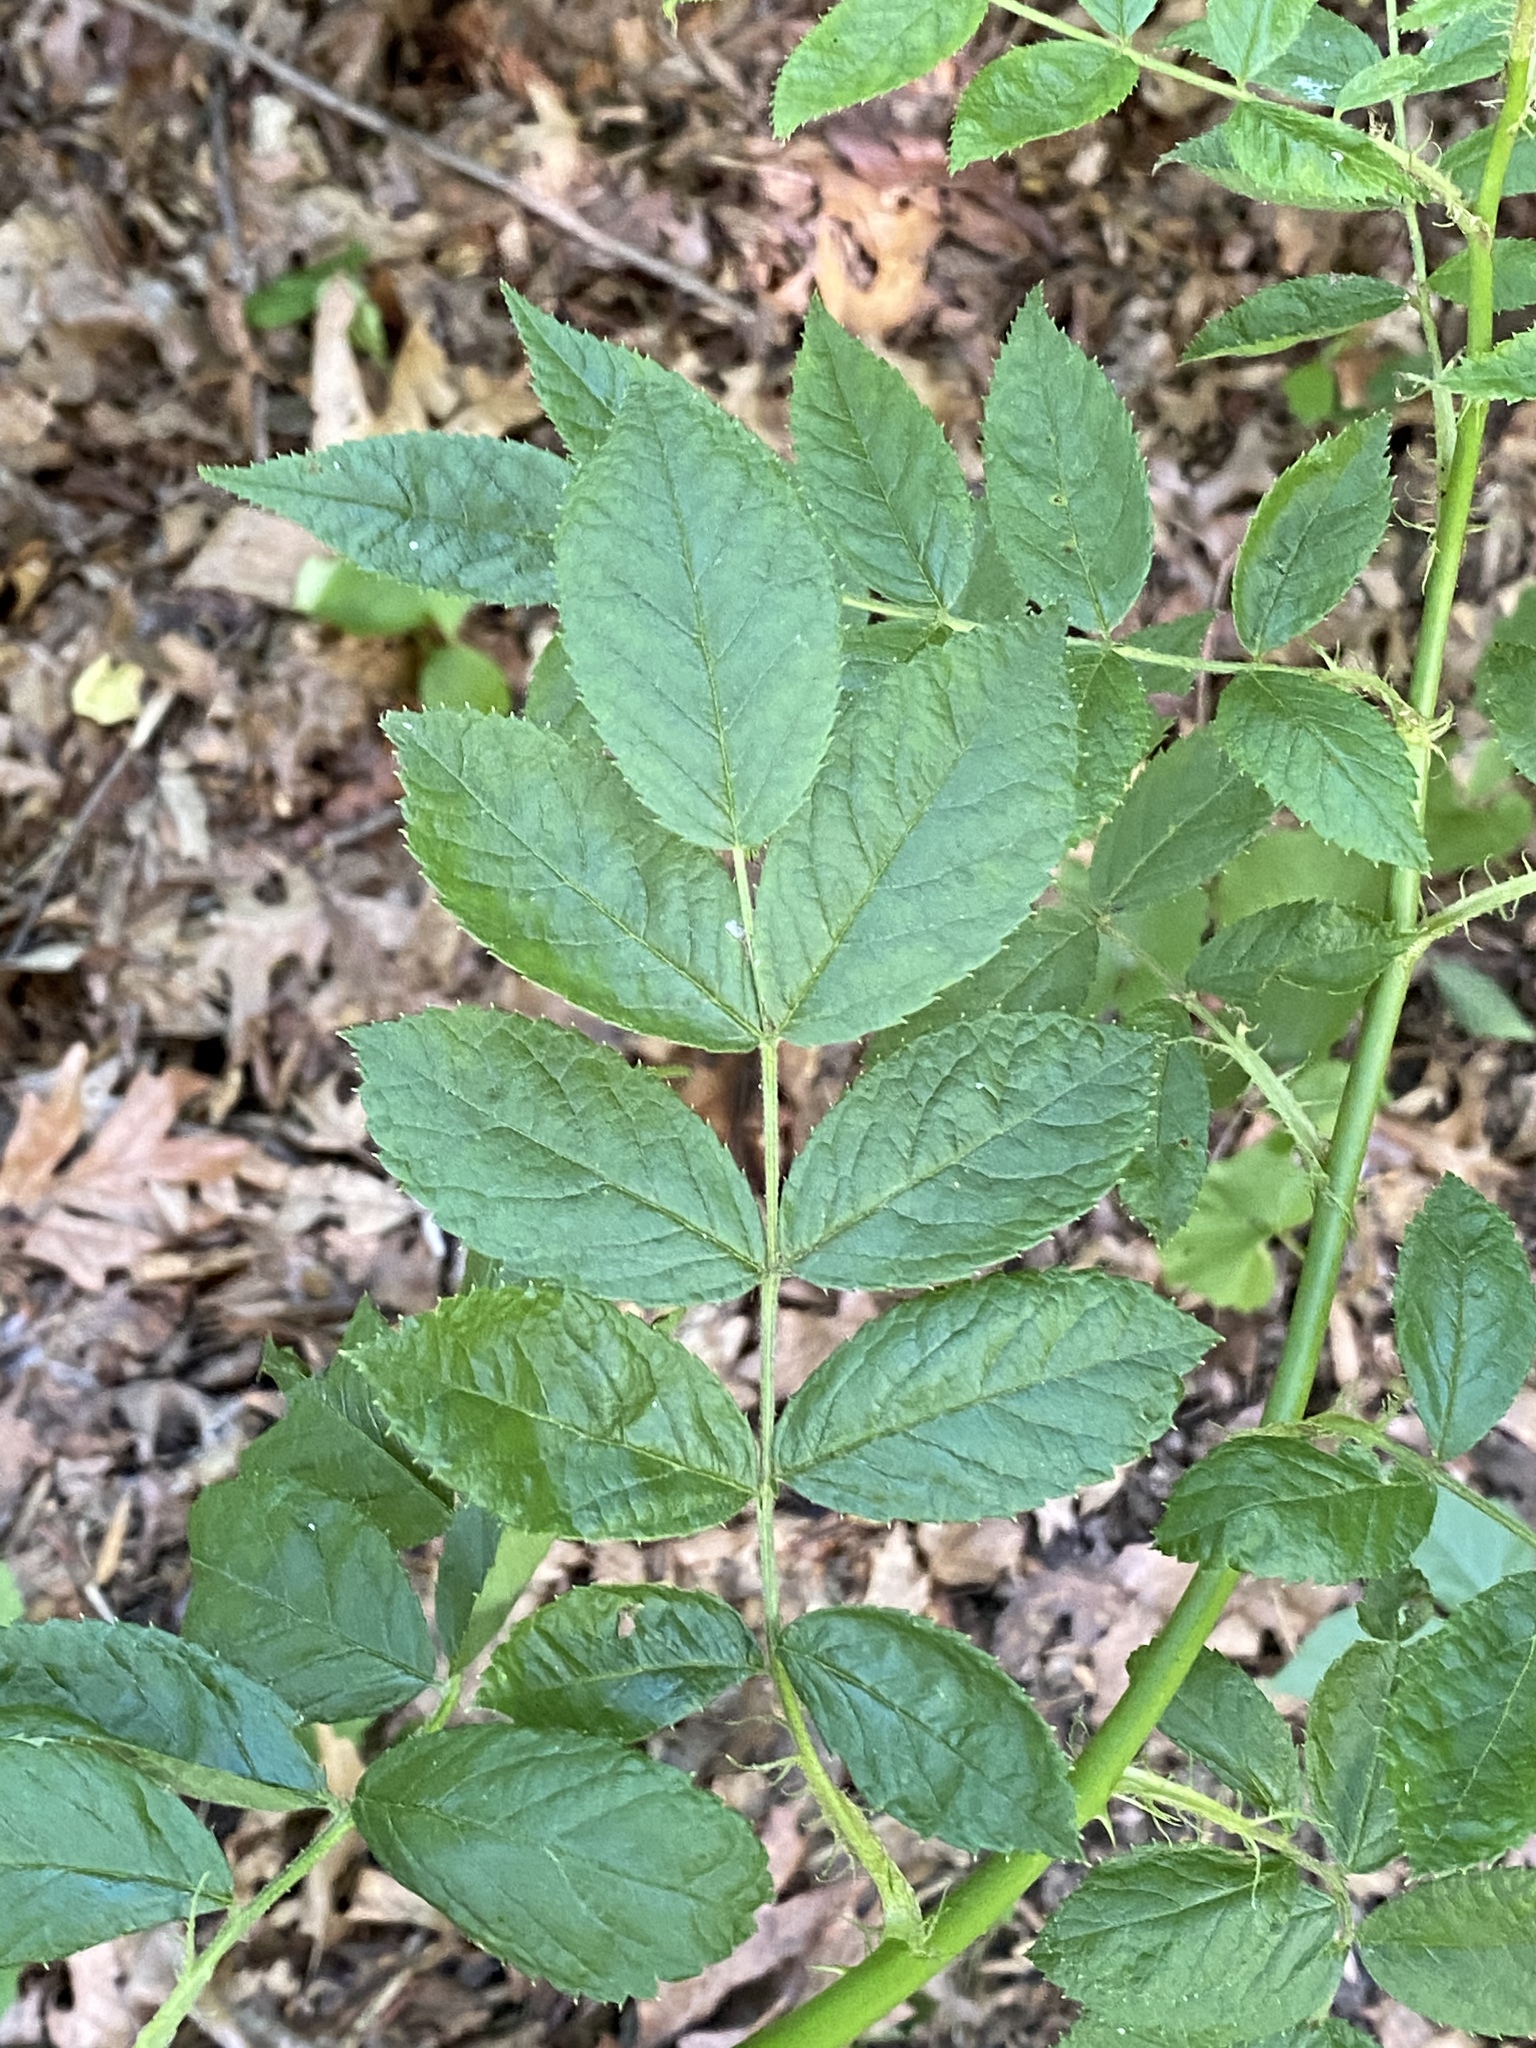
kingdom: Plantae
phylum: Tracheophyta
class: Magnoliopsida
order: Rosales
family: Rosaceae
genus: Rosa
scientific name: Rosa multiflora
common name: Multiflora rose
